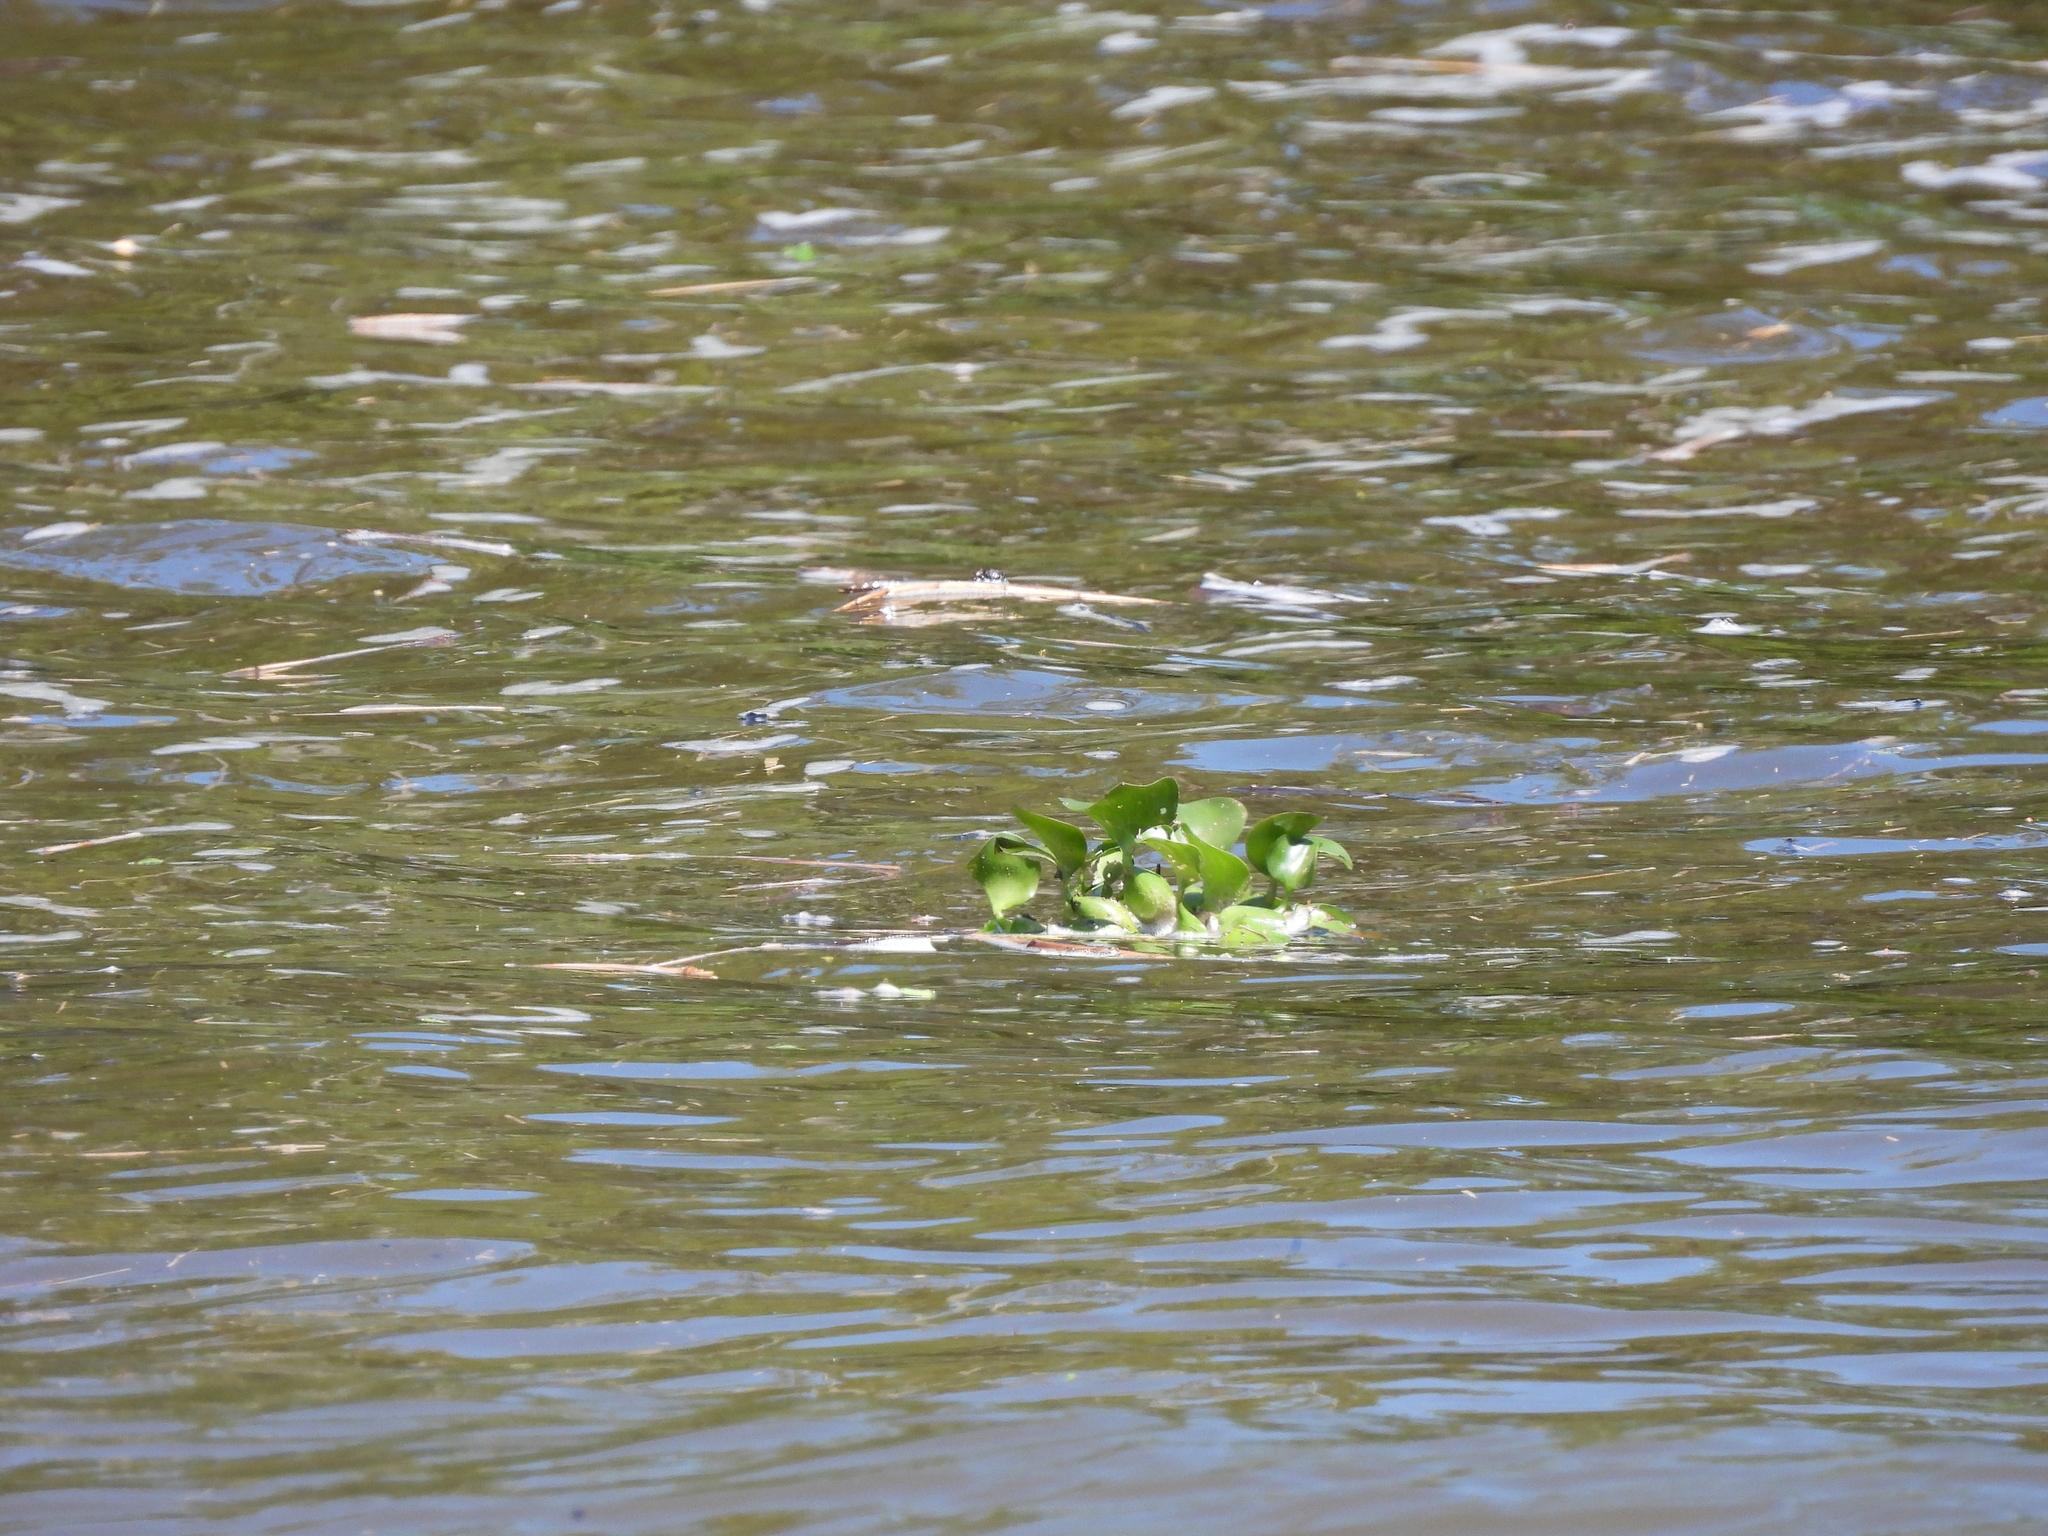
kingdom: Plantae
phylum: Tracheophyta
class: Liliopsida
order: Commelinales
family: Pontederiaceae
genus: Pontederia
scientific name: Pontederia crassipes
